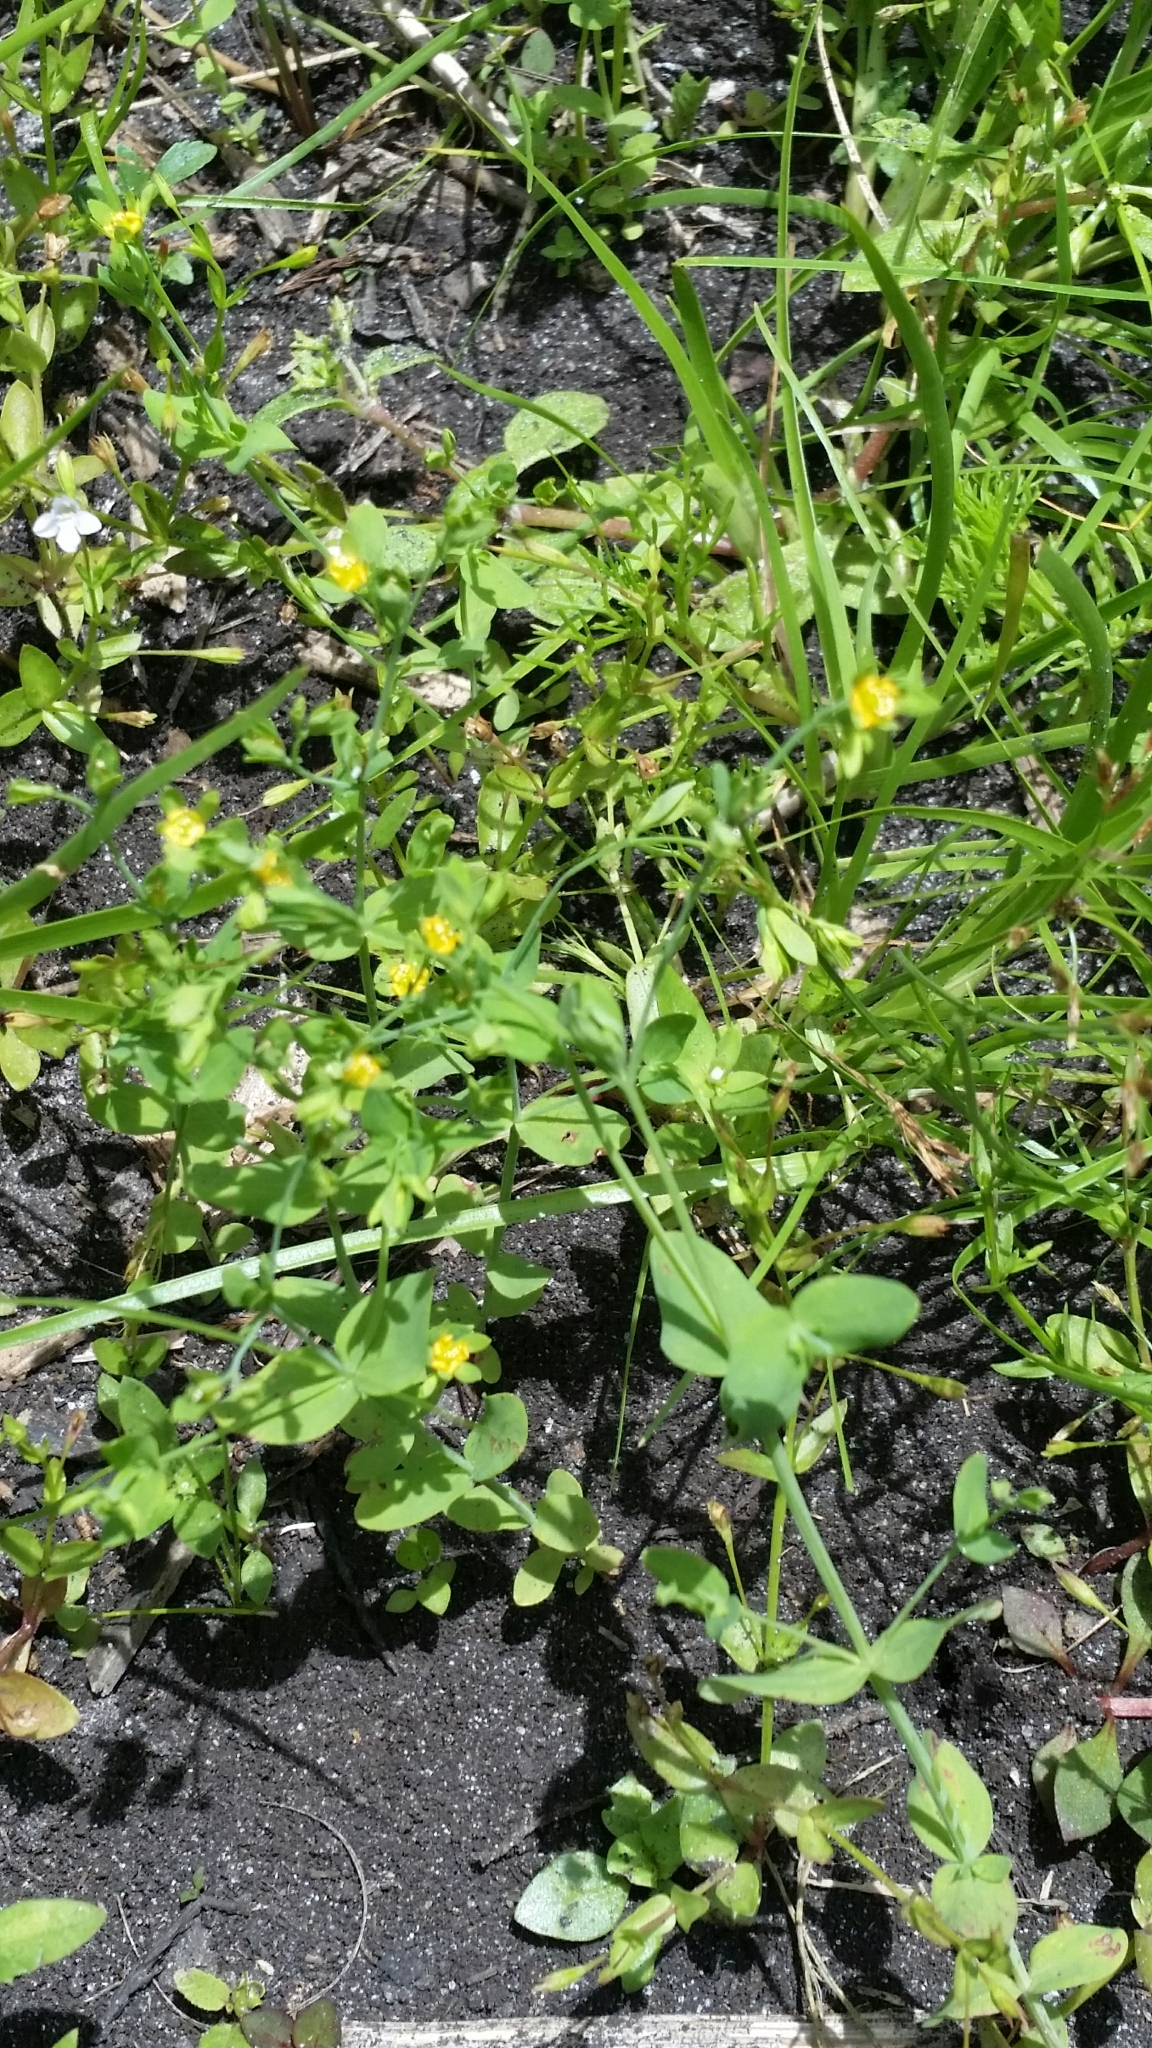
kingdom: Plantae
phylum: Tracheophyta
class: Magnoliopsida
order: Malpighiales
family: Hypericaceae
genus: Hypericum
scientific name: Hypericum mutilum
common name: Dwarf st. john's-wort
